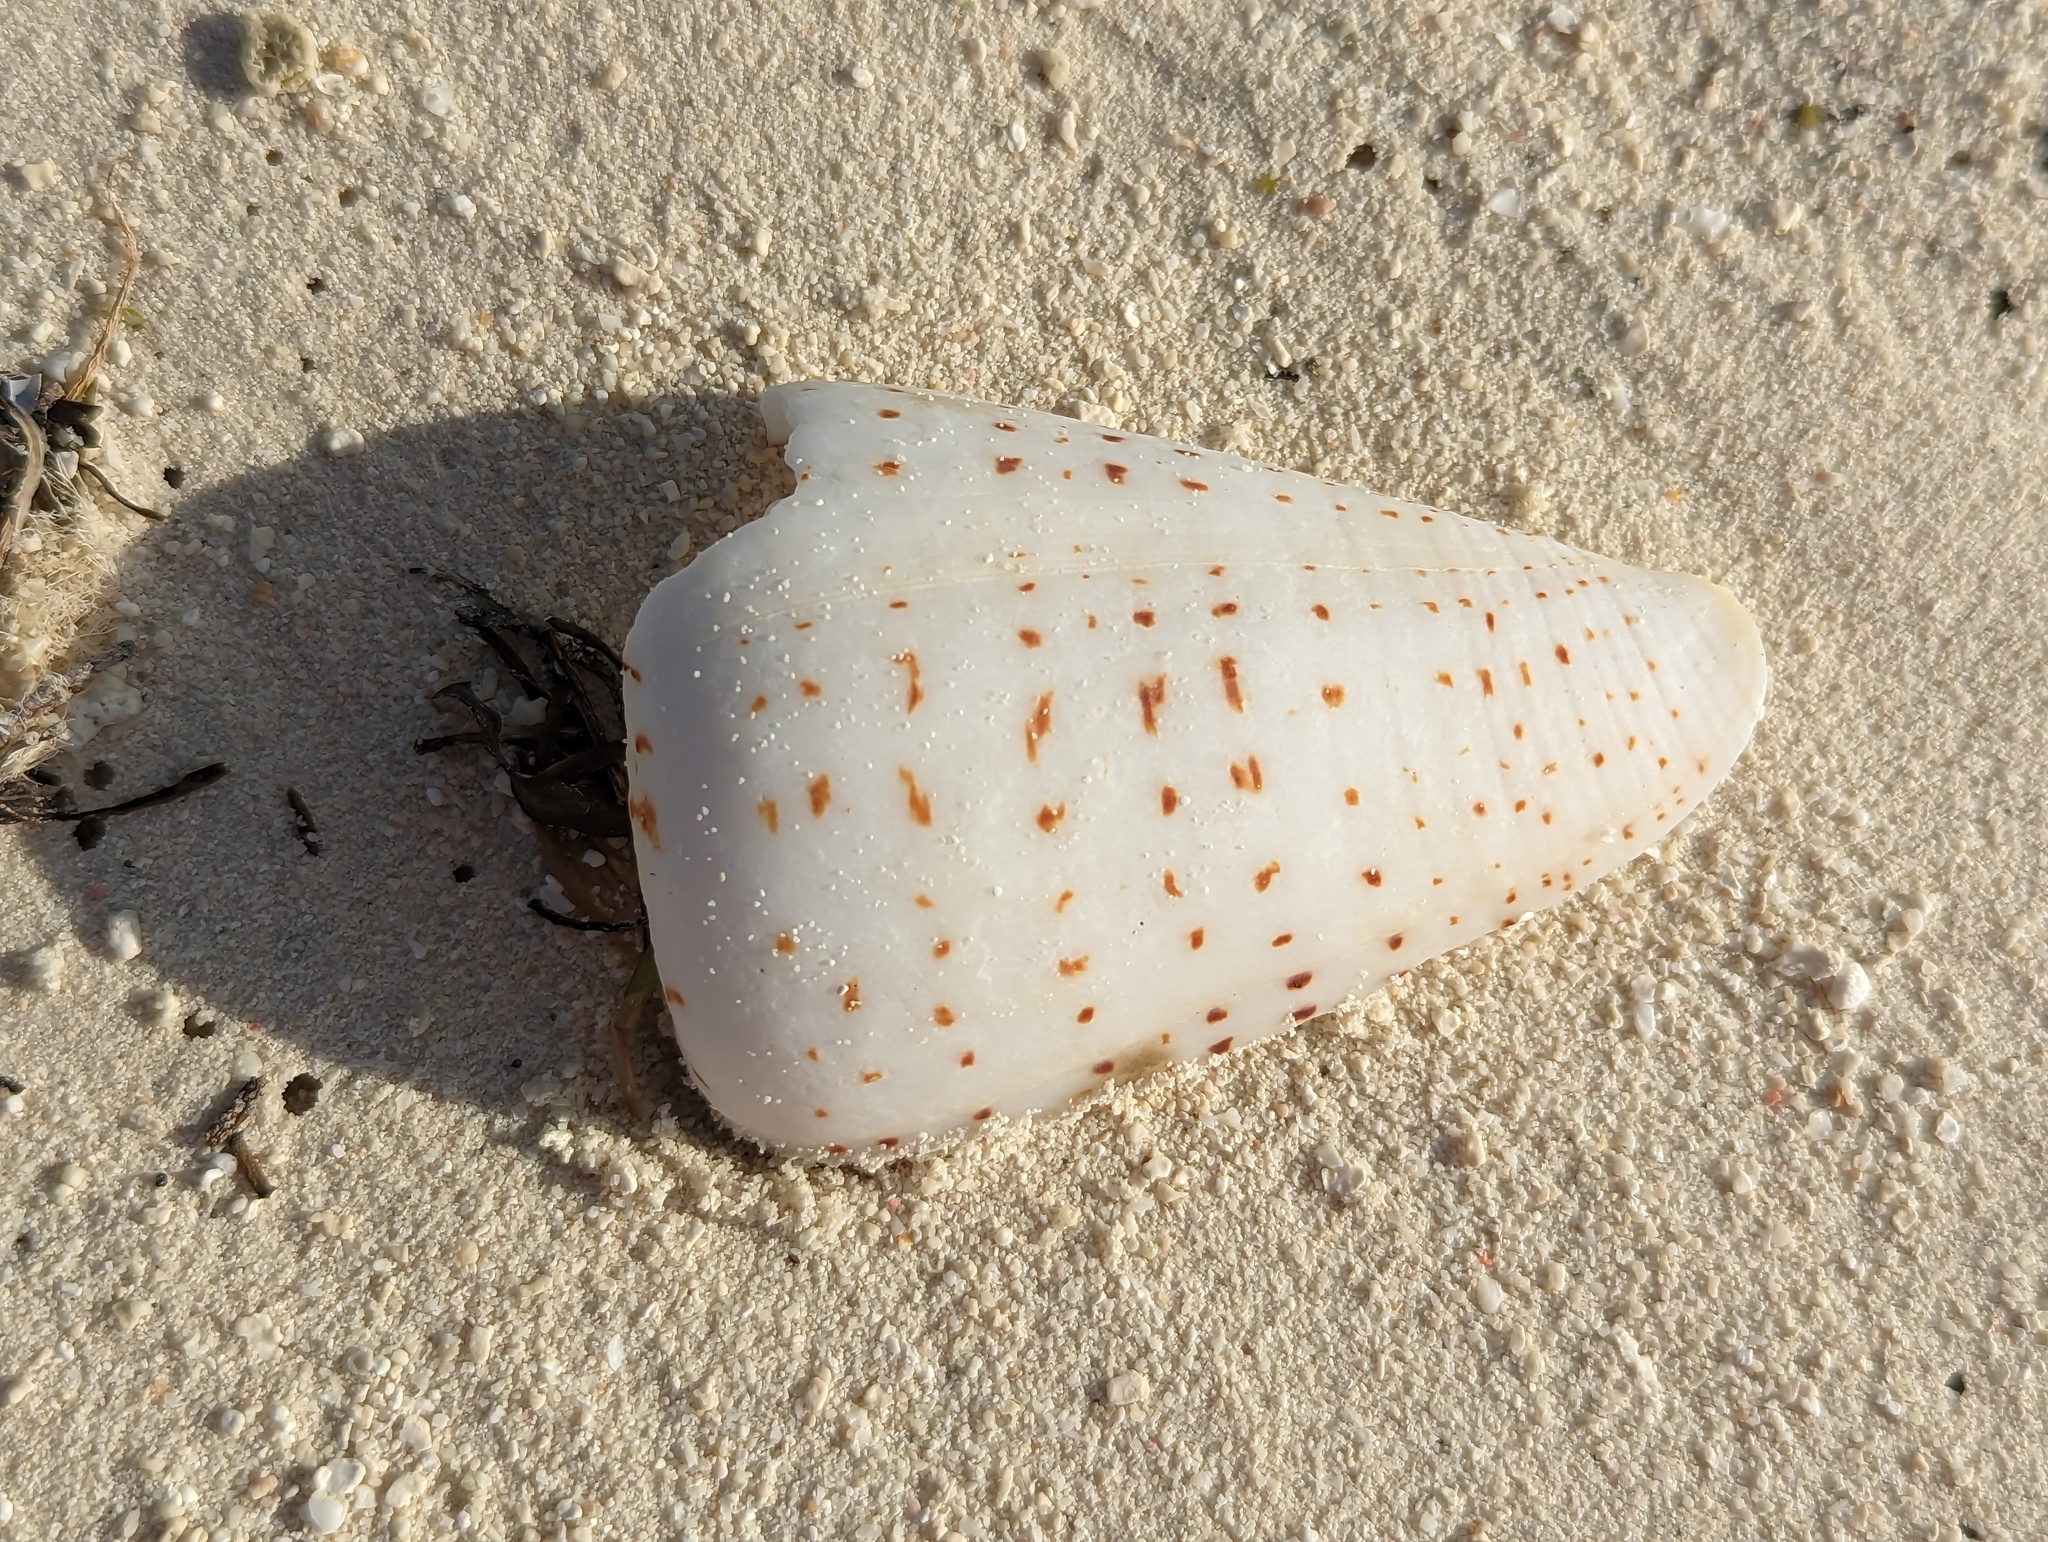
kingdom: Animalia
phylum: Mollusca
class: Gastropoda
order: Neogastropoda
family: Conidae
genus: Conus
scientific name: Conus betulinus
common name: Birch cone
